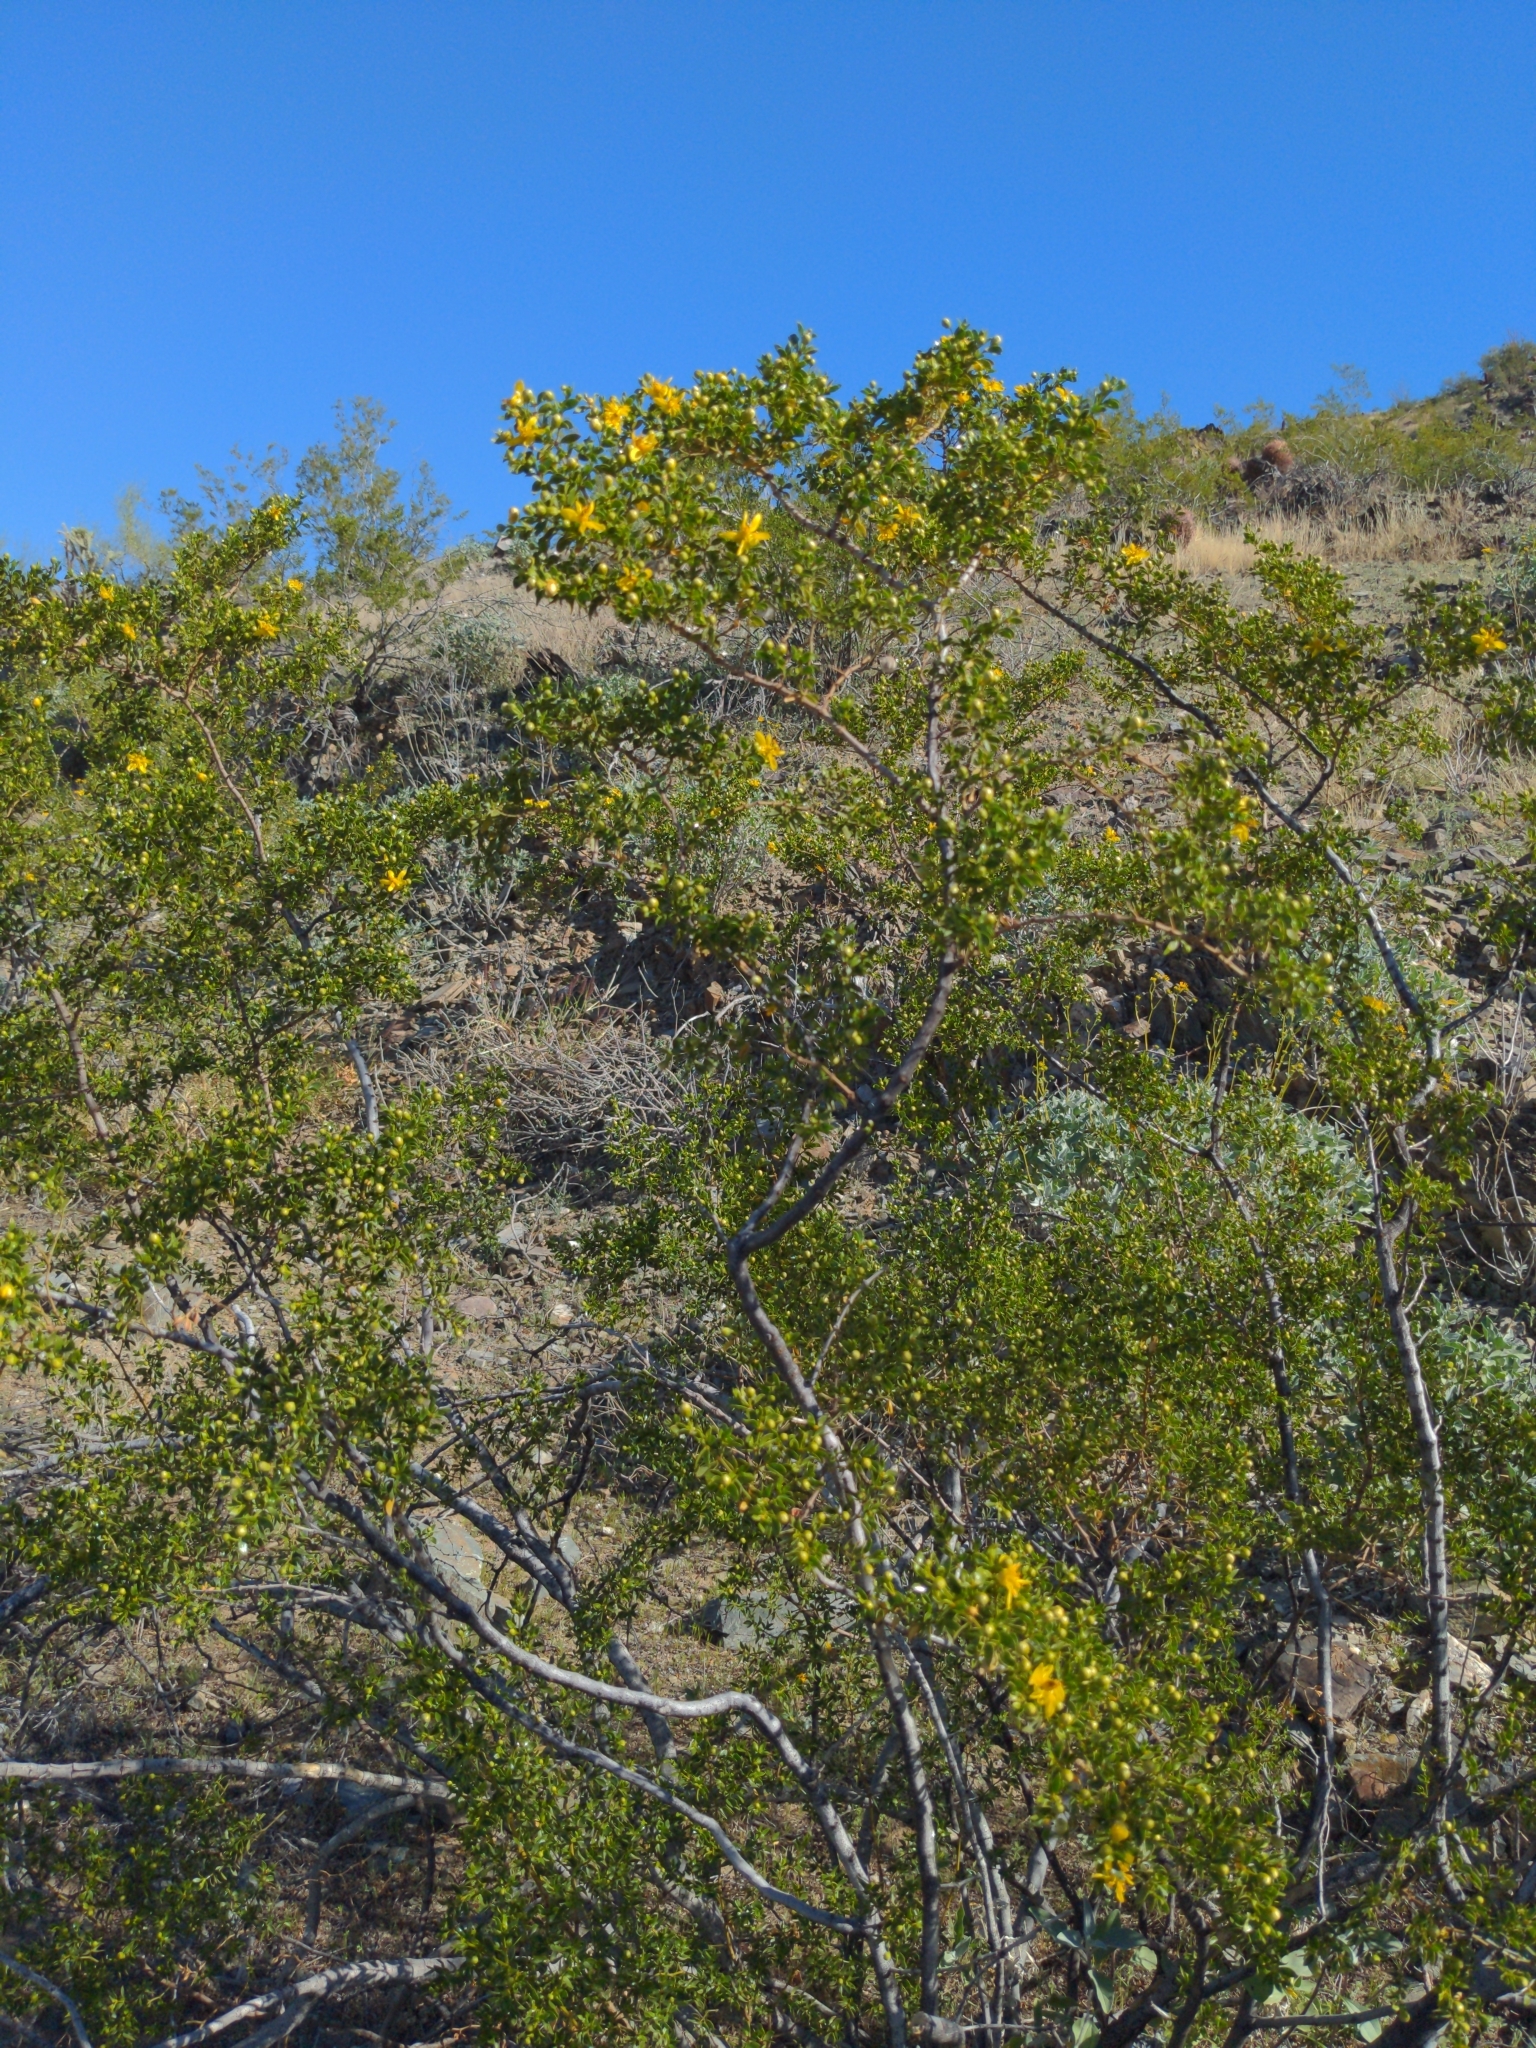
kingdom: Plantae
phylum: Tracheophyta
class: Magnoliopsida
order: Zygophyllales
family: Zygophyllaceae
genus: Larrea
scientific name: Larrea tridentata
